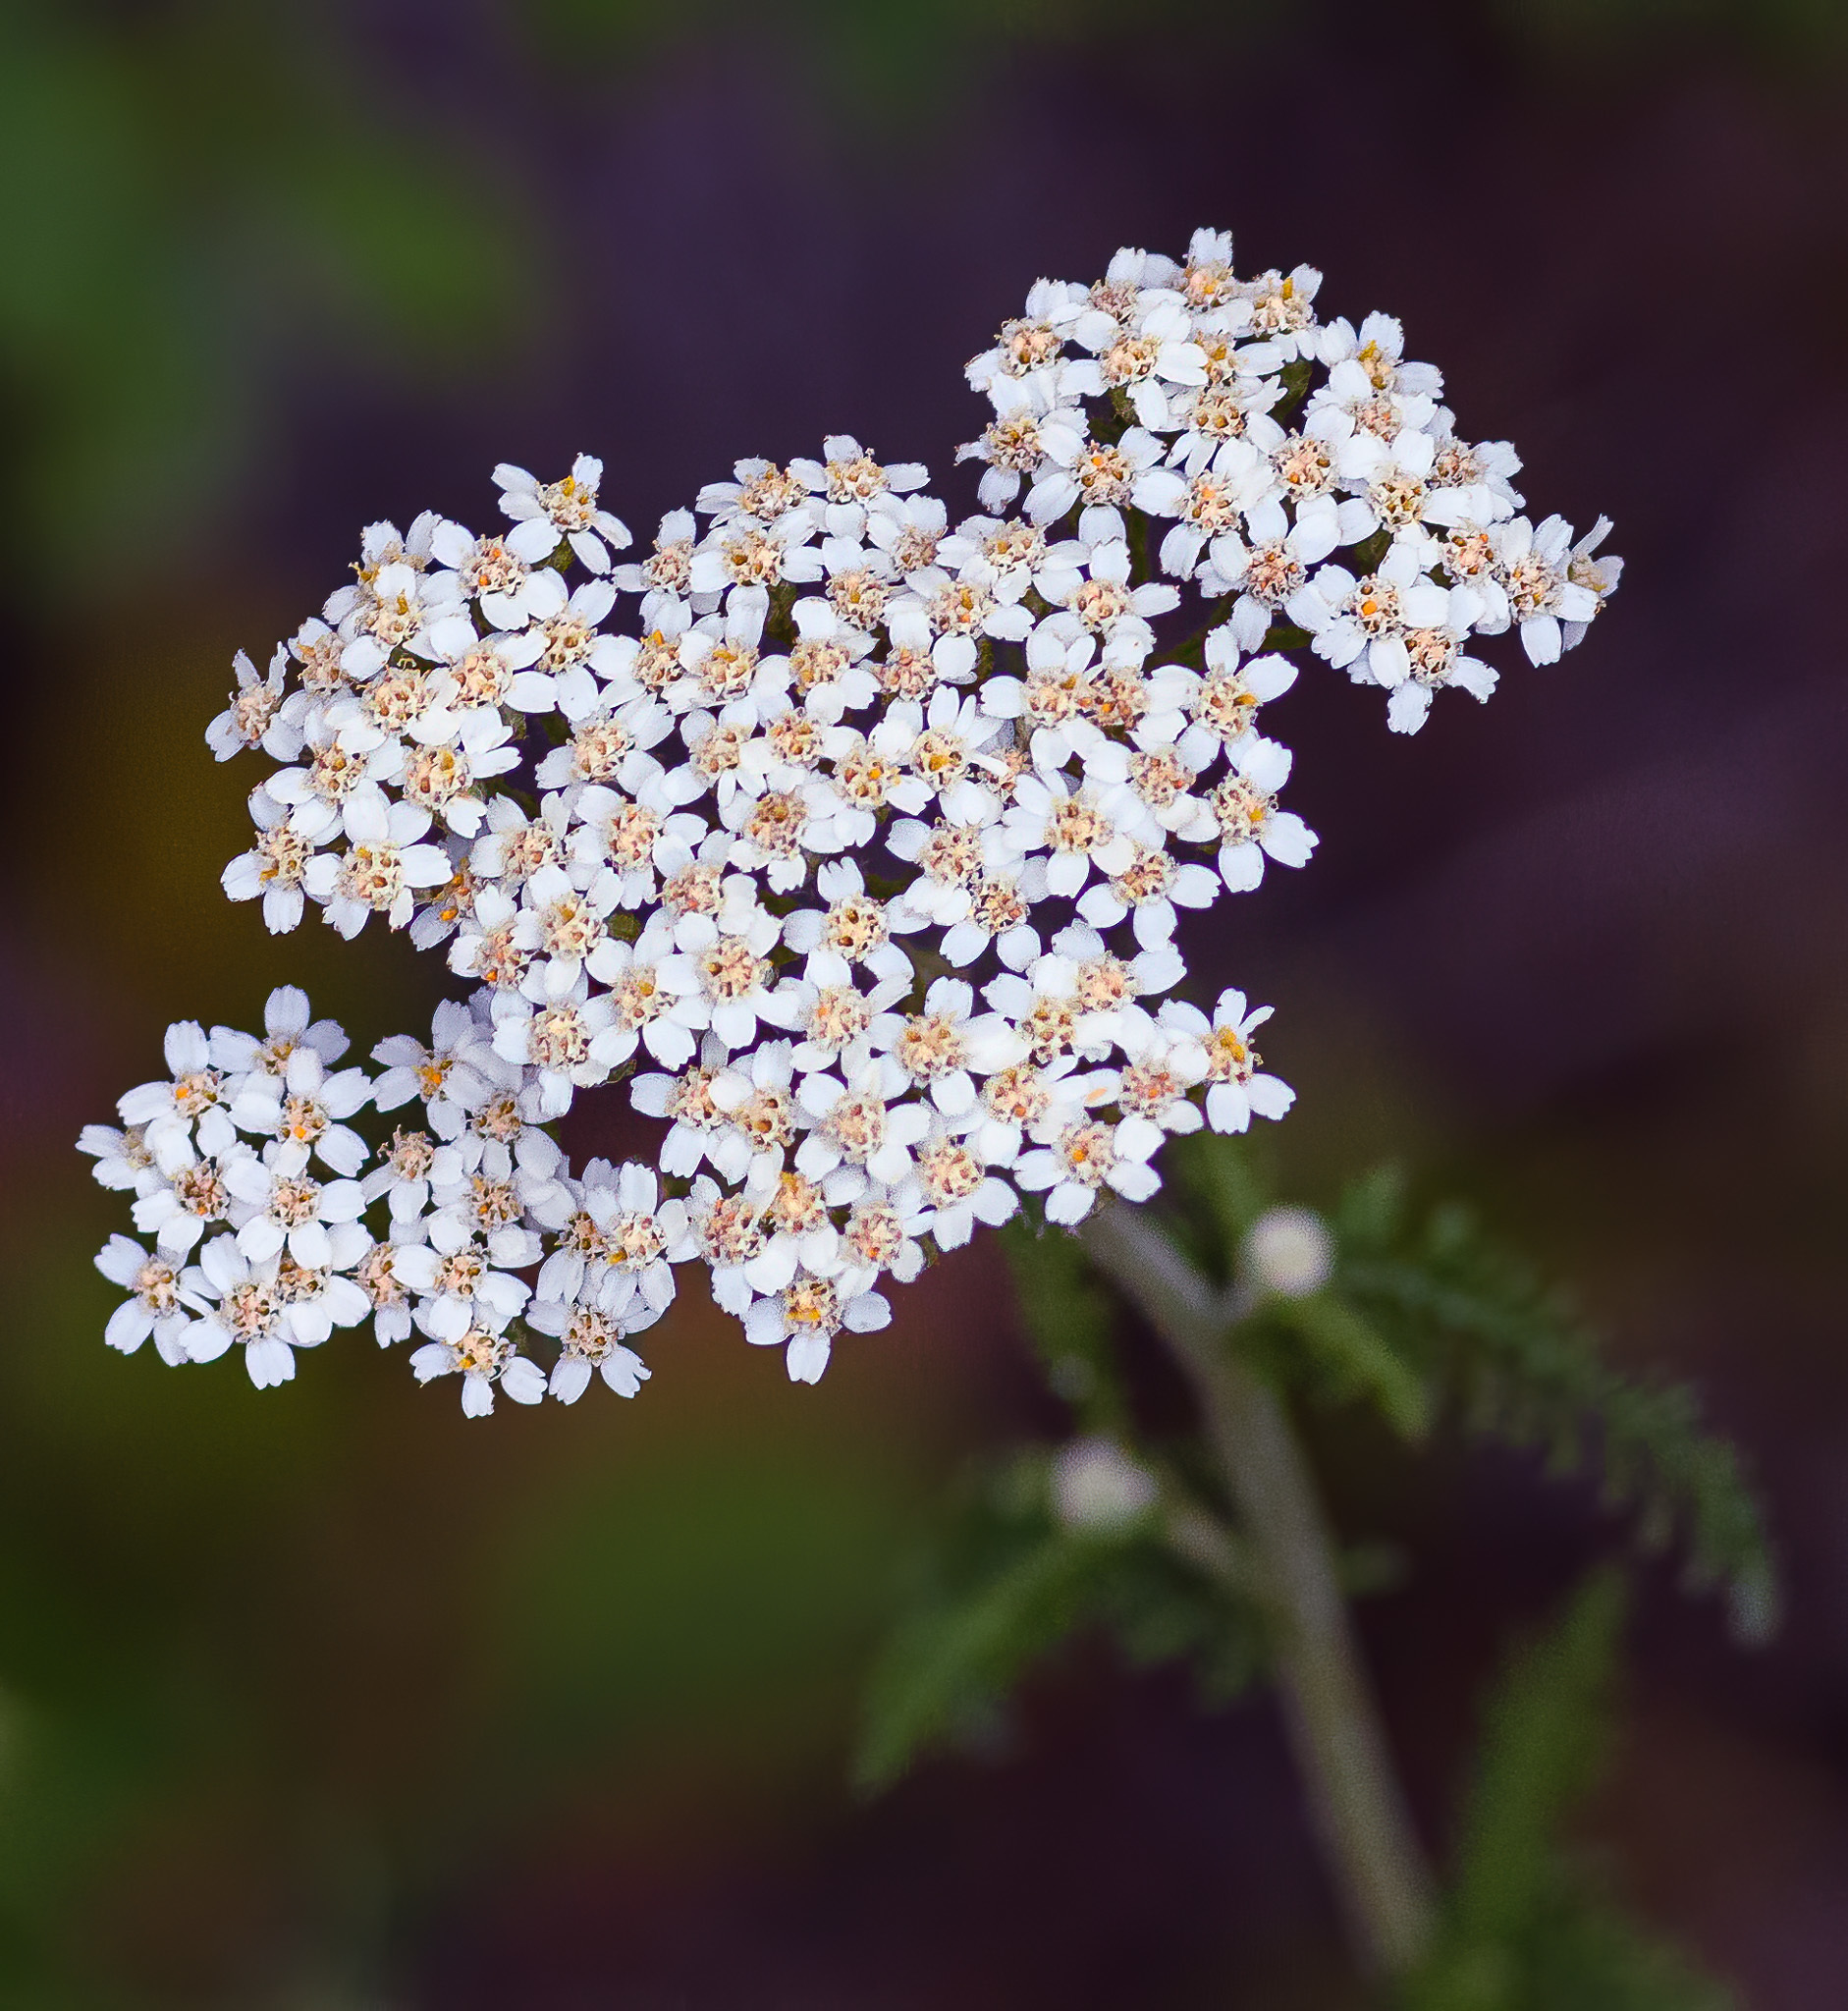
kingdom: Plantae
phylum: Tracheophyta
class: Magnoliopsida
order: Asterales
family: Asteraceae
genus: Achillea
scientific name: Achillea millefolium
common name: Yarrow
